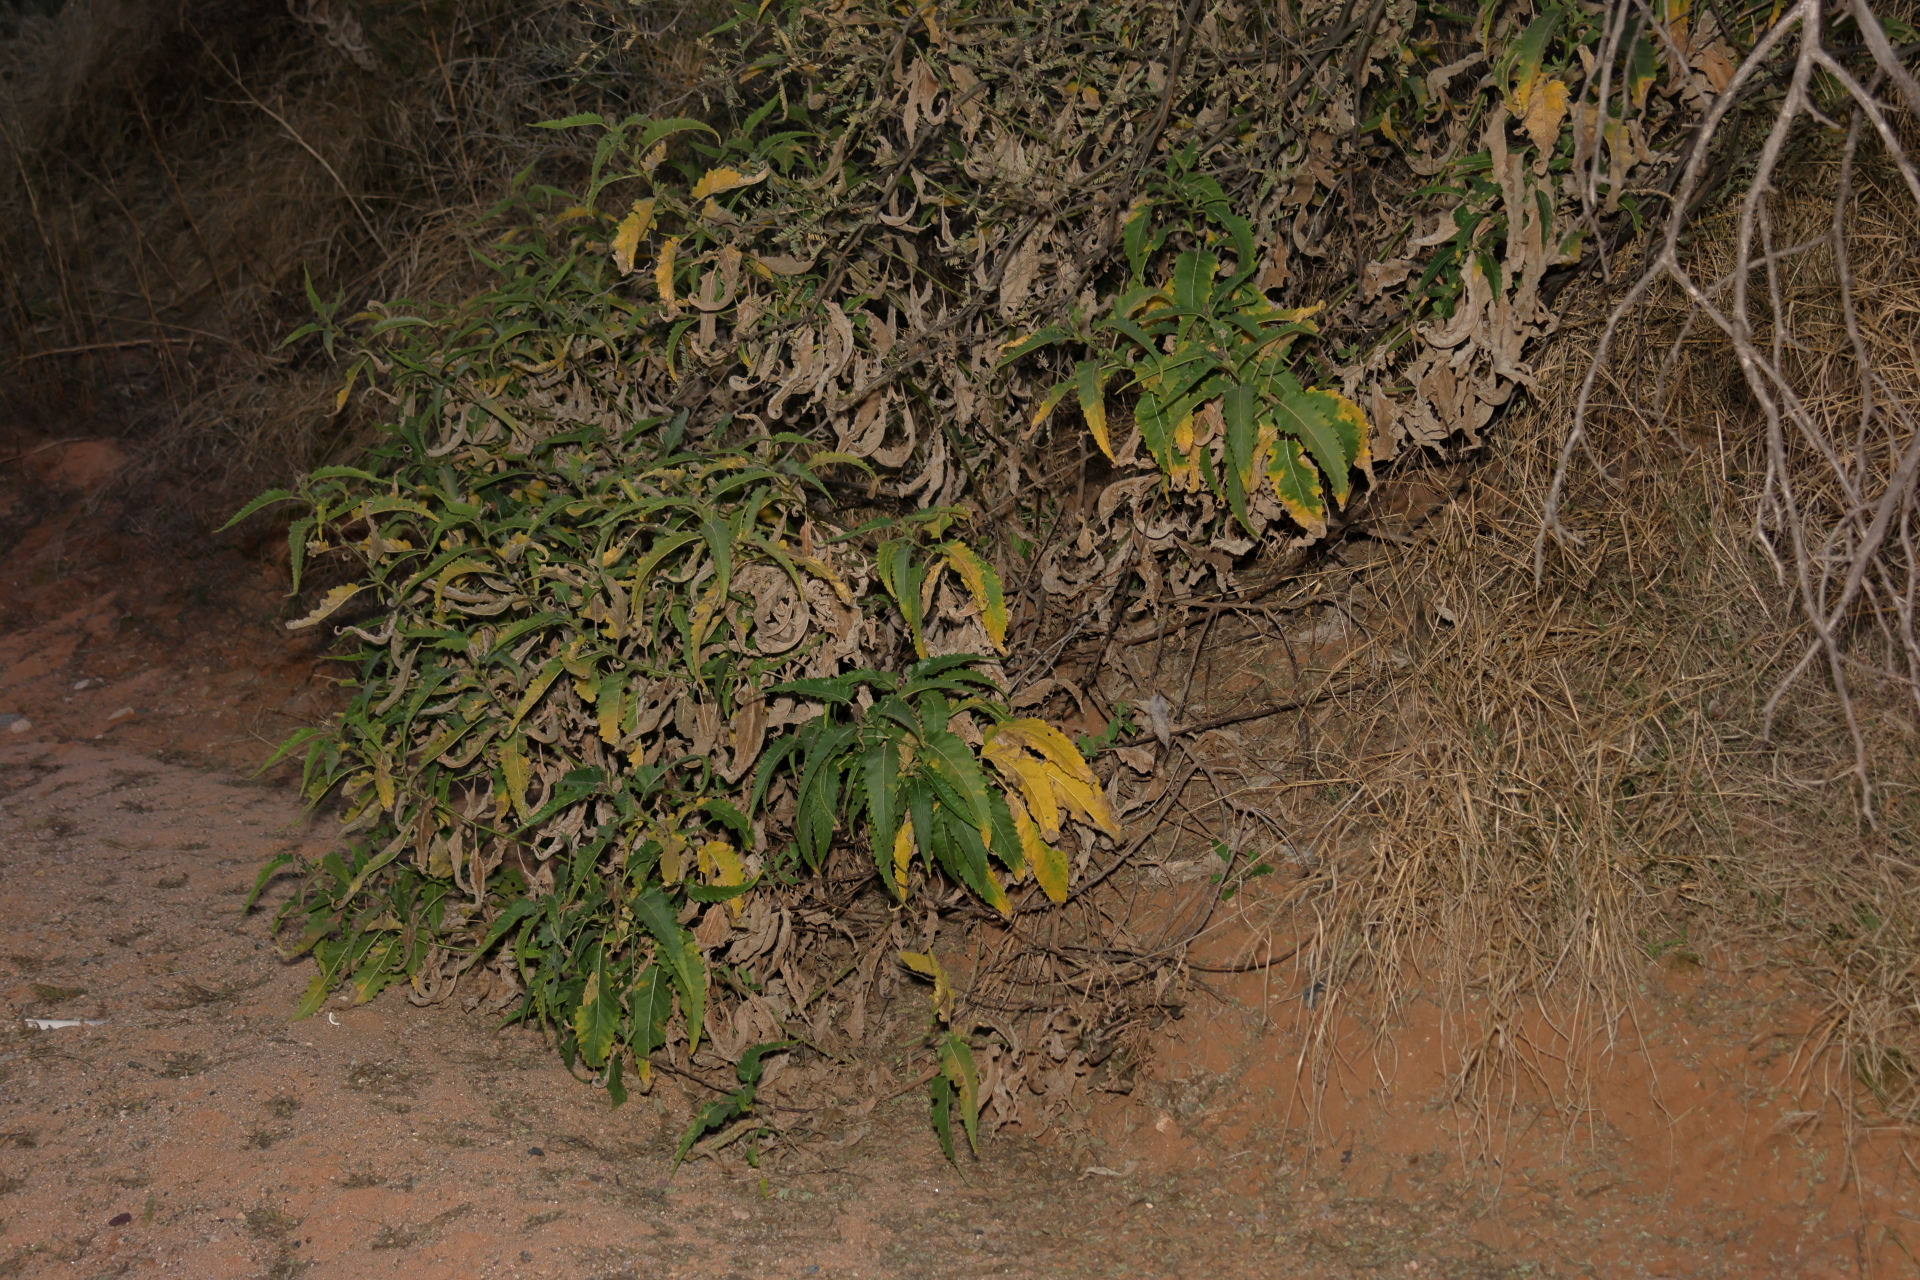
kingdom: Plantae
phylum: Tracheophyta
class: Magnoliopsida
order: Asterales
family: Asteraceae
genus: Ambrosia
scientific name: Ambrosia ambrosioides
